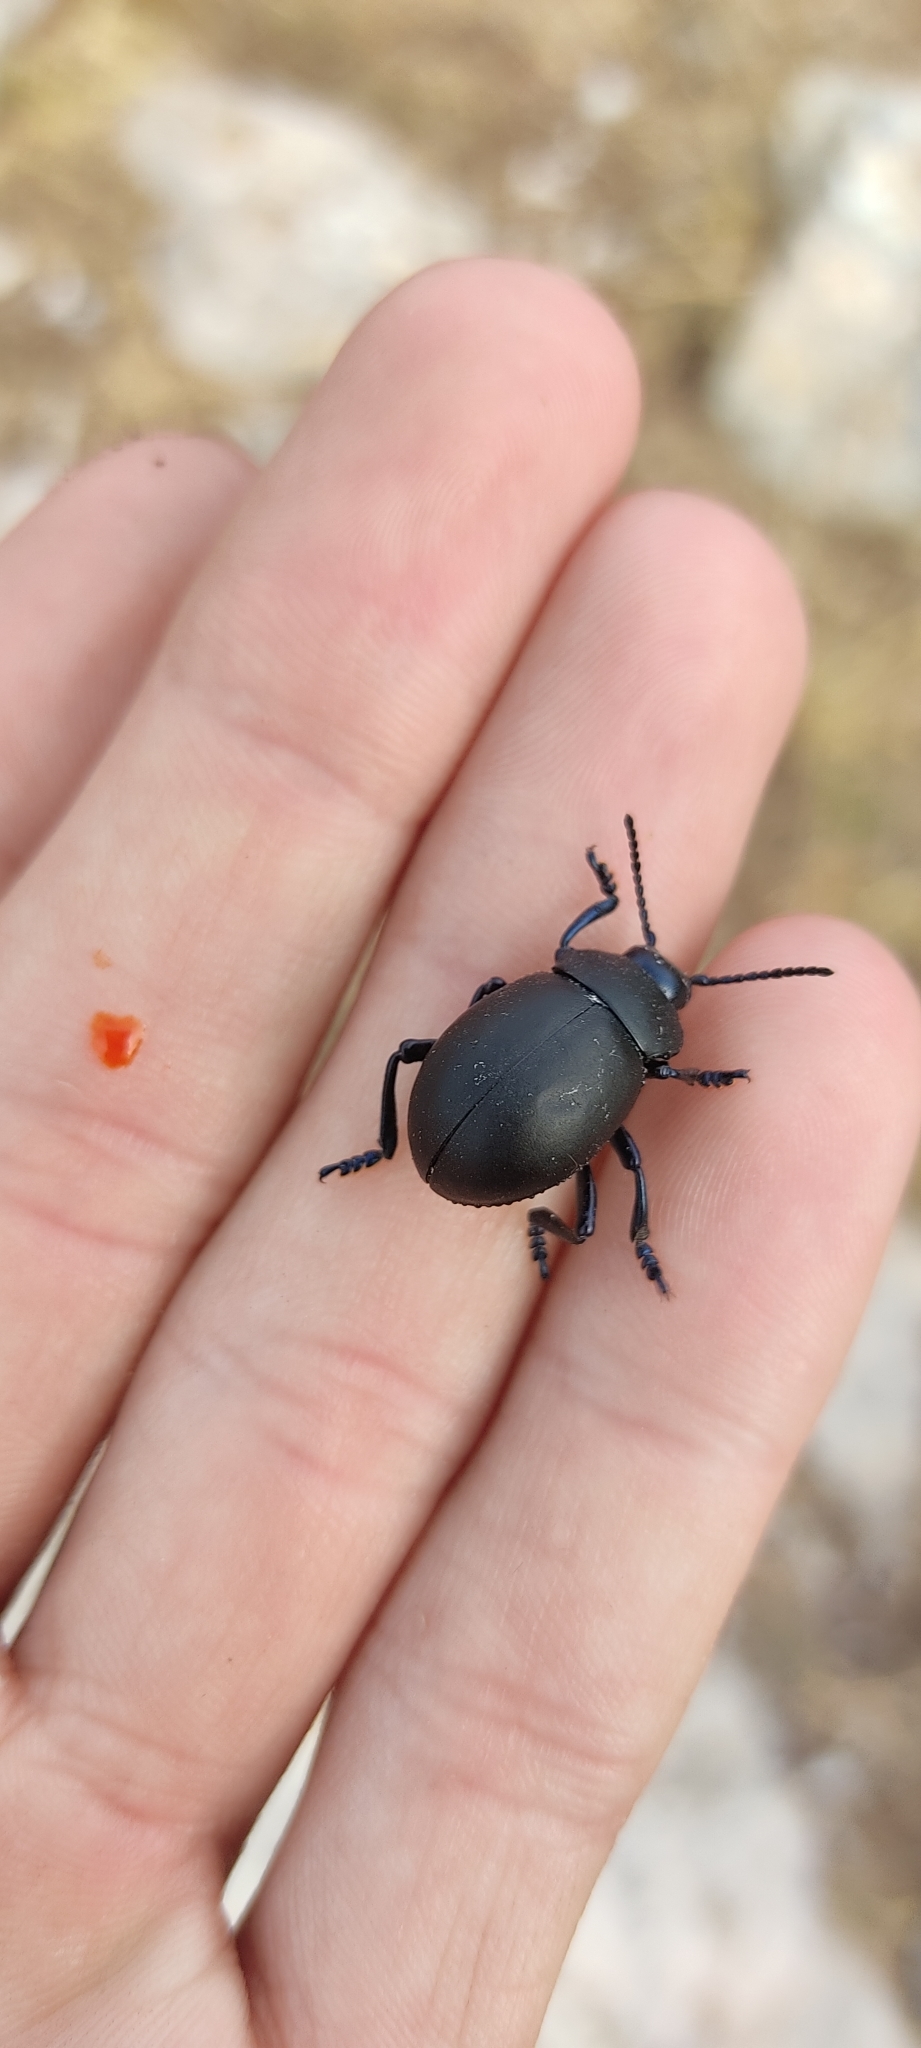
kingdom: Animalia
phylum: Arthropoda
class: Insecta
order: Coleoptera
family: Chrysomelidae
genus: Timarcha
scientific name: Timarcha tenebricosa
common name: Bloody-nosed beetle
